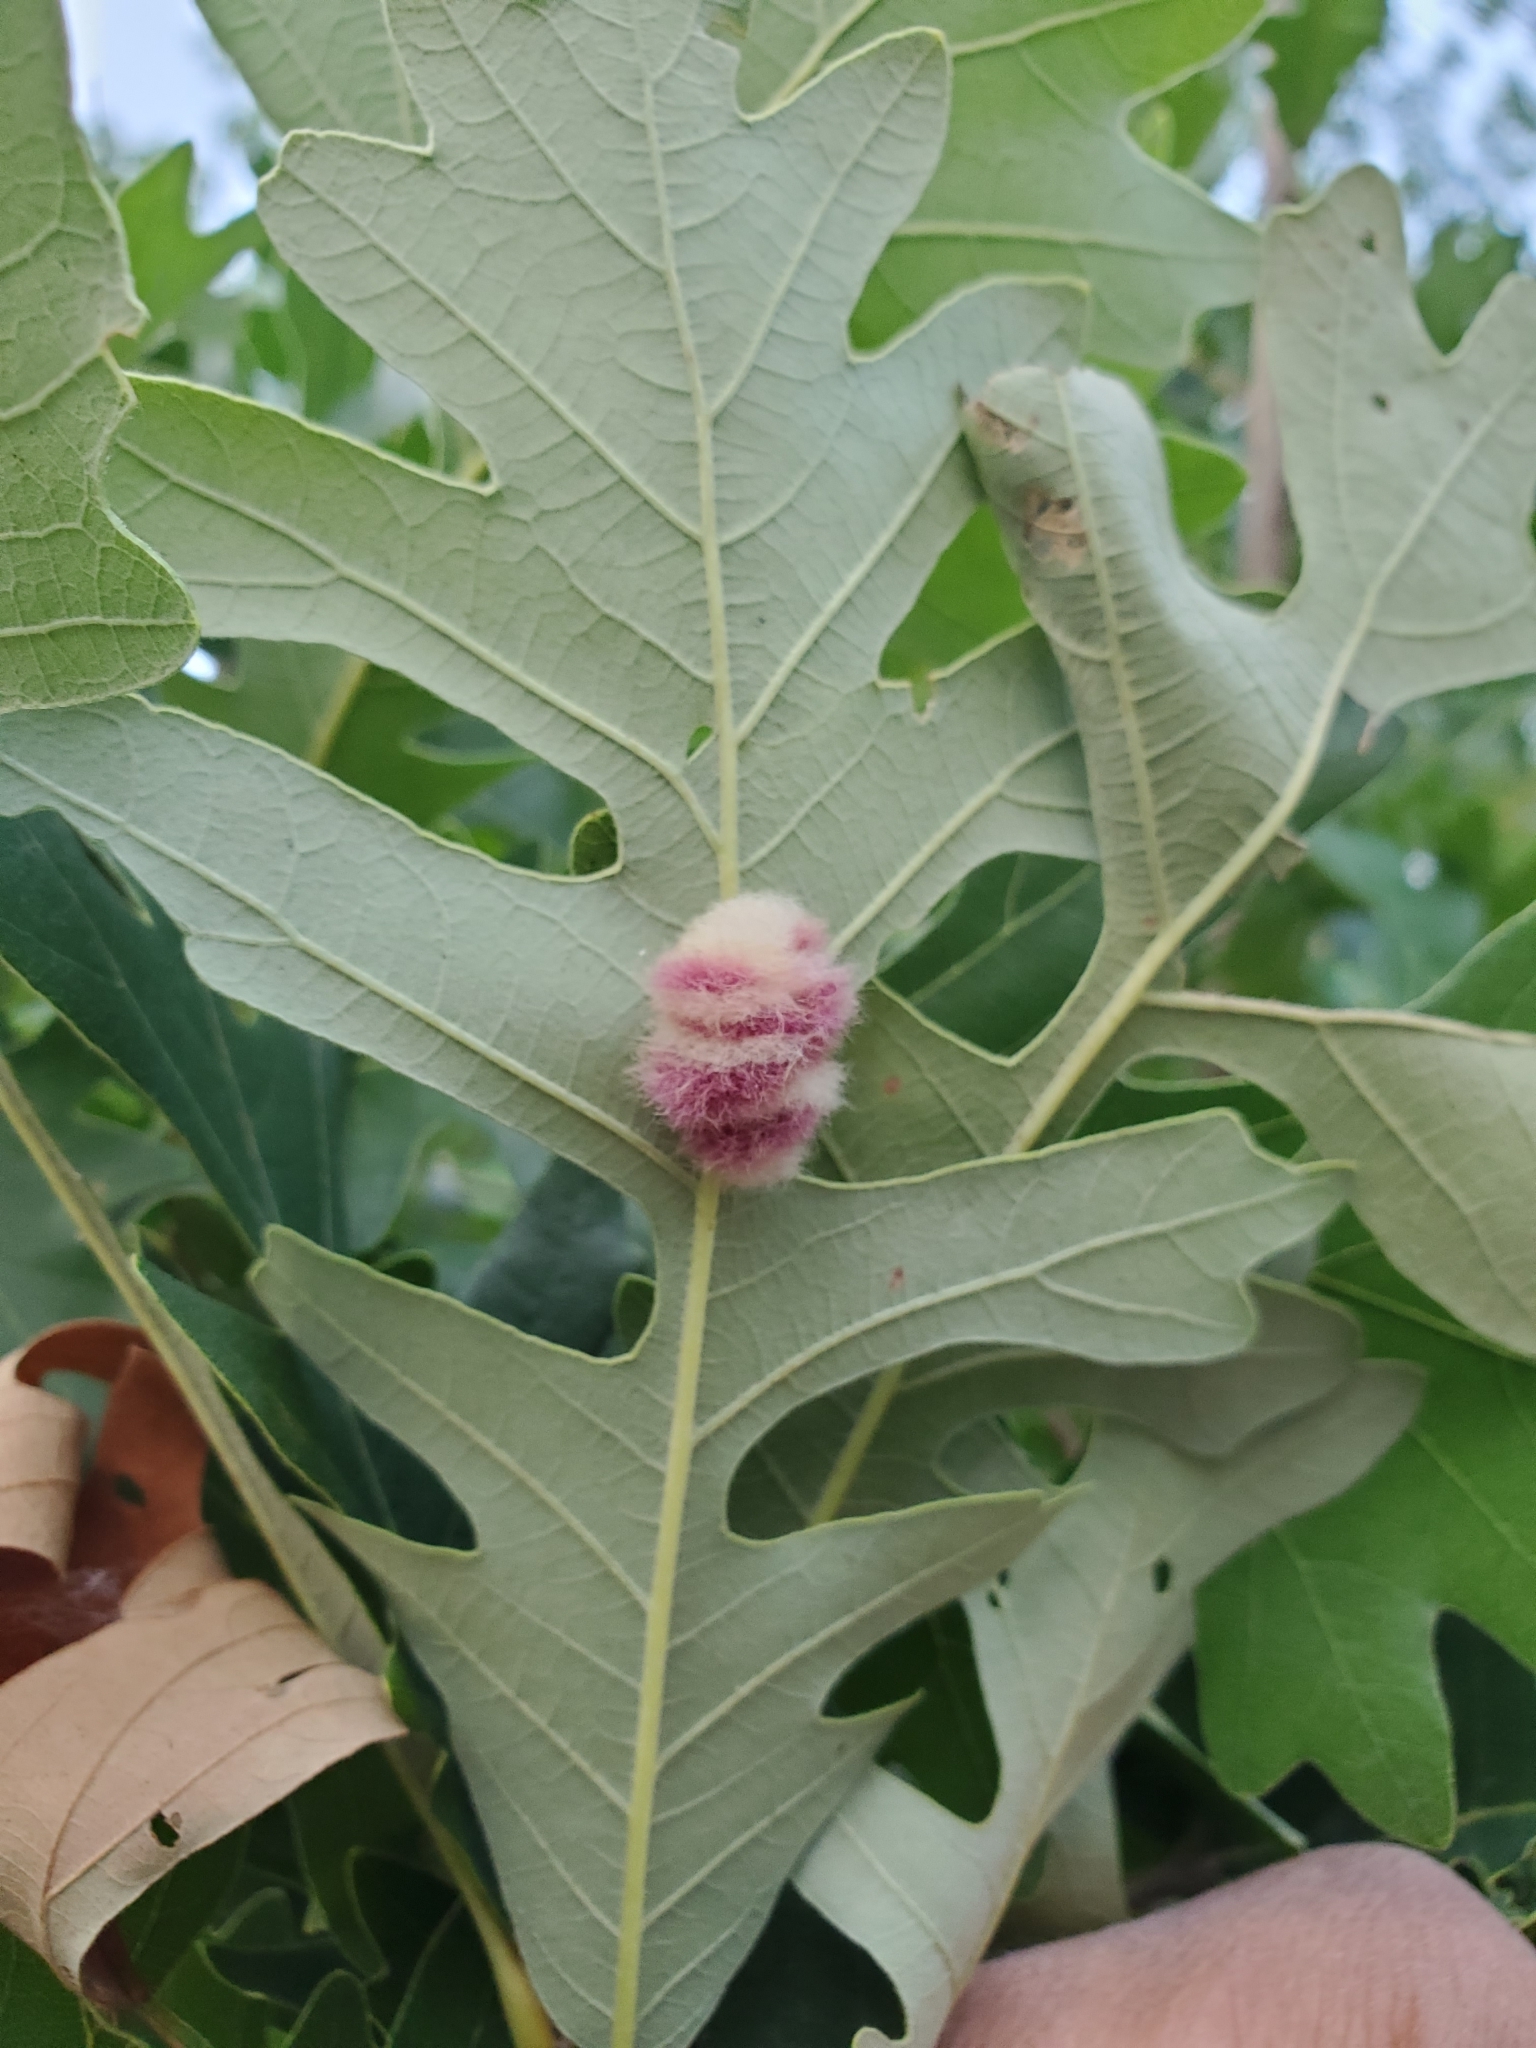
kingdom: Animalia
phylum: Arthropoda
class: Insecta
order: Hymenoptera
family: Cynipidae
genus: Andricus
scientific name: Andricus Druon ignotum
